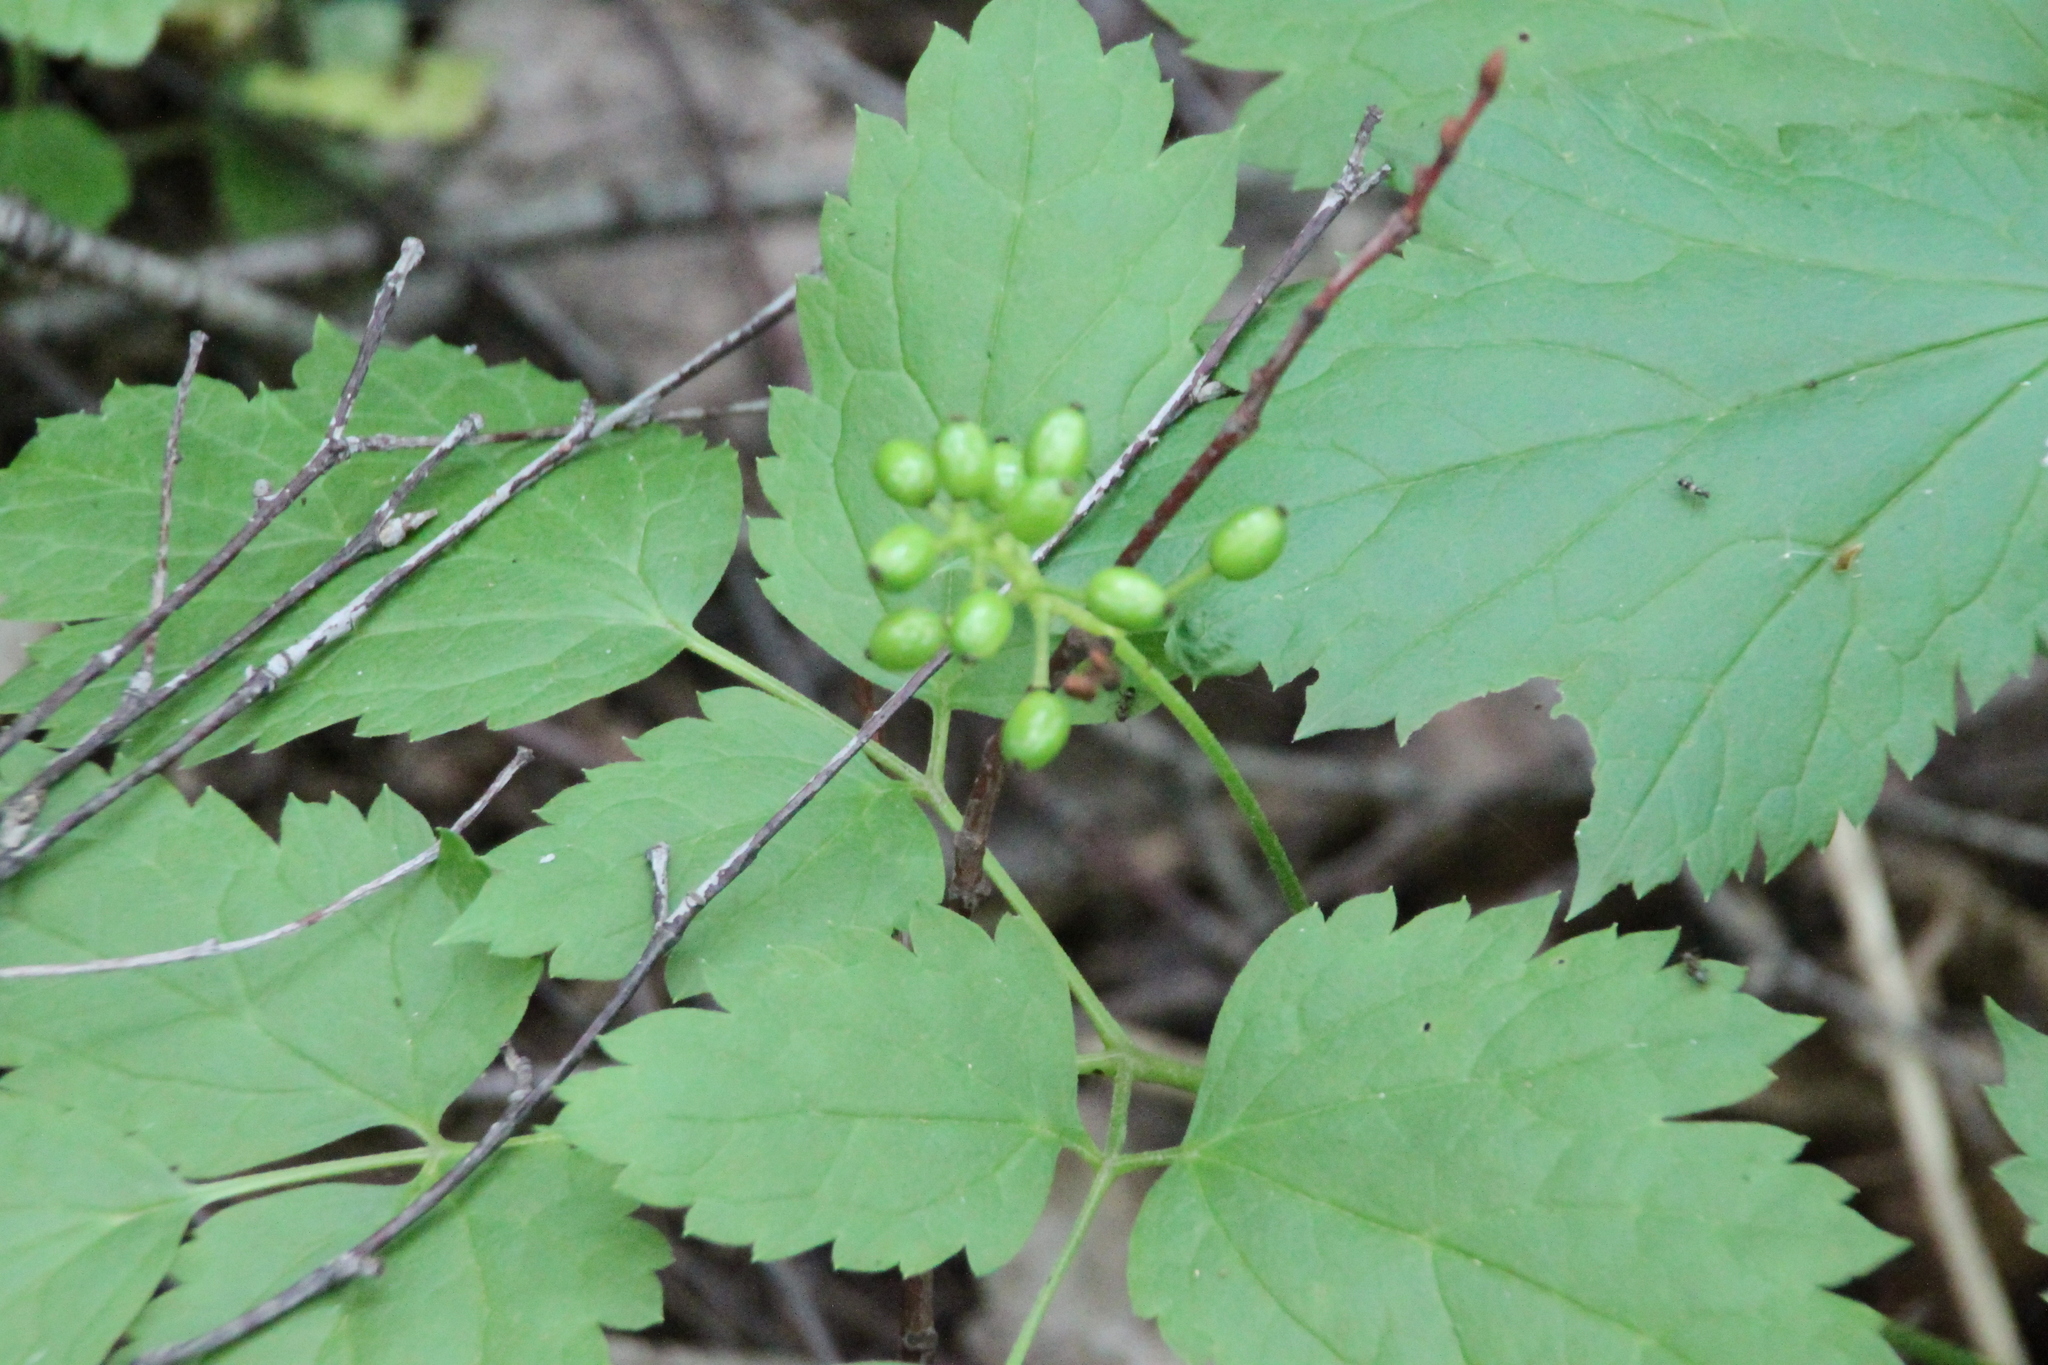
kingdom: Plantae
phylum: Tracheophyta
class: Magnoliopsida
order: Ranunculales
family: Ranunculaceae
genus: Actaea
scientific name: Actaea spicata
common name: Baneberry
